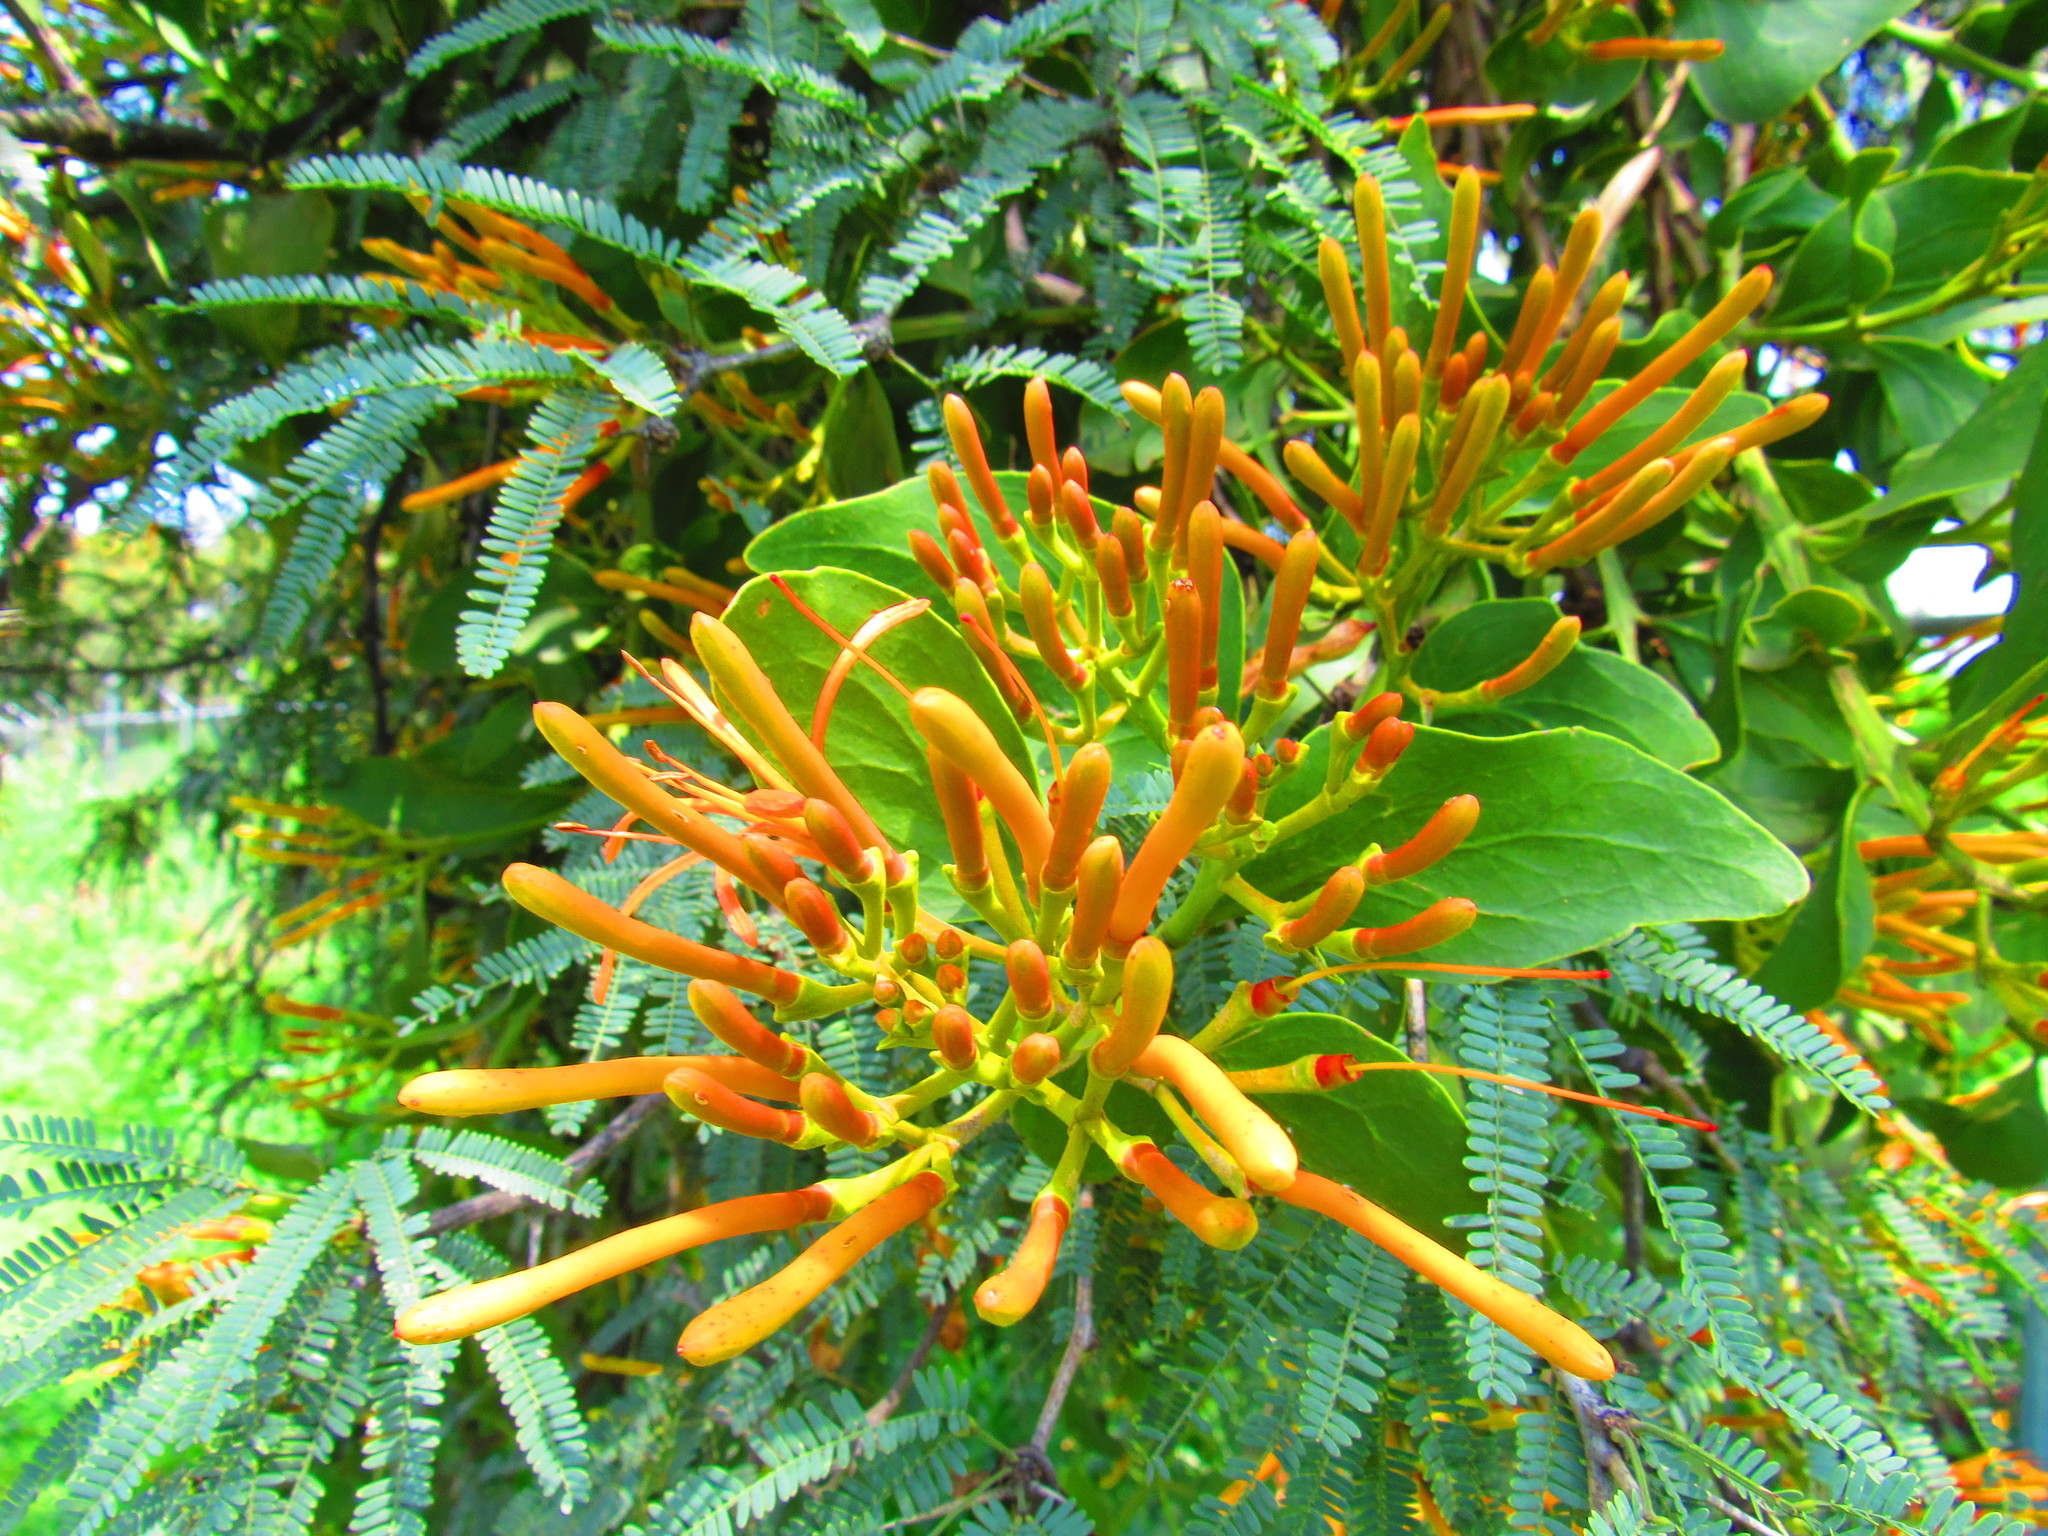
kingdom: Plantae
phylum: Tracheophyta
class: Magnoliopsida
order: Santalales
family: Loranthaceae
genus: Psittacanthus
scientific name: Psittacanthus calyculatus
